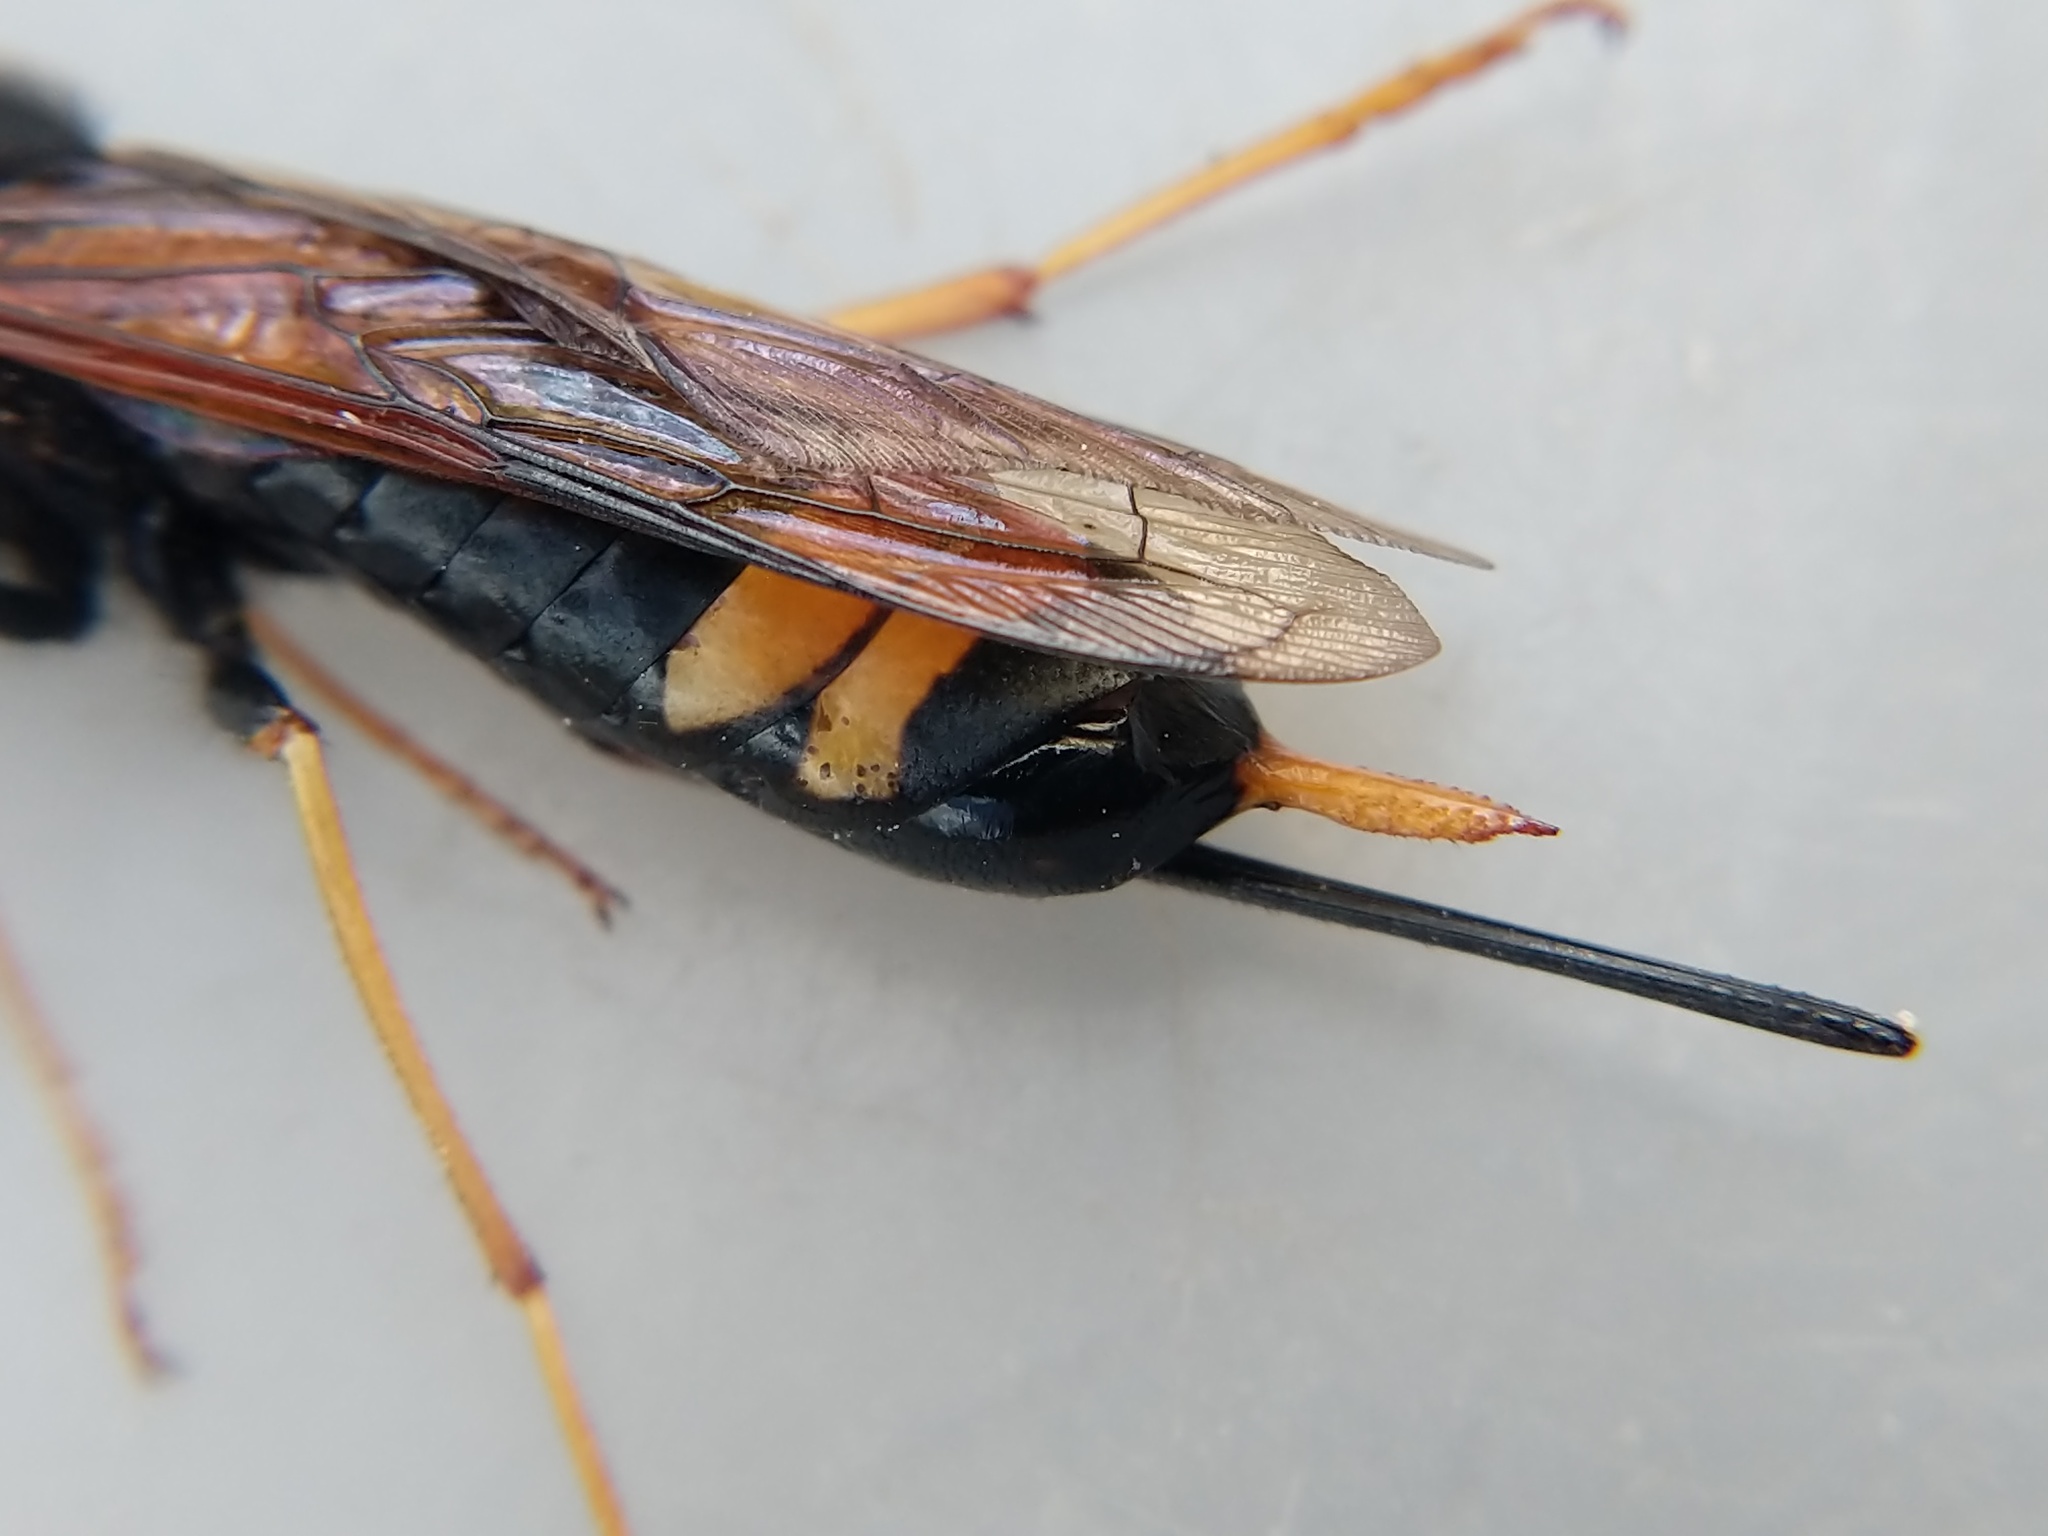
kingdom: Animalia
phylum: Arthropoda
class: Insecta
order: Hymenoptera
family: Siricidae
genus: Urocerus
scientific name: Urocerus flavicornis
